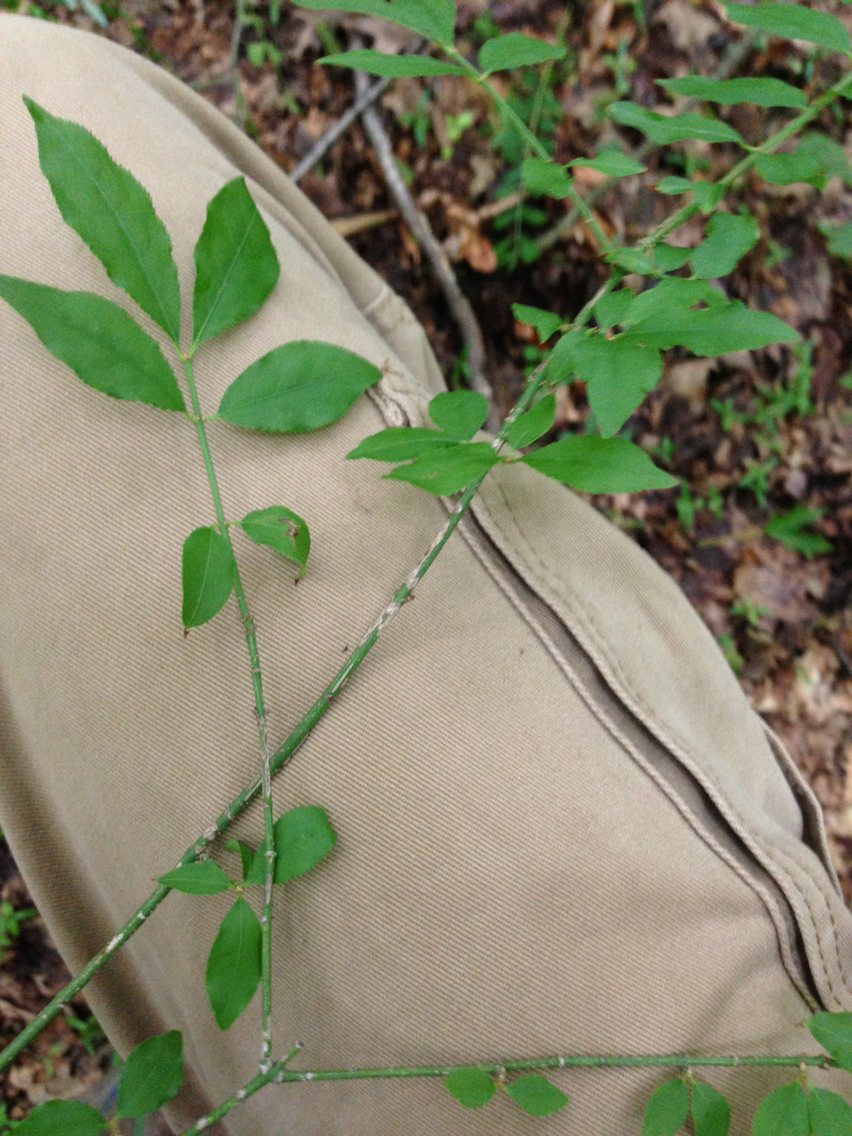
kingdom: Plantae
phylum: Tracheophyta
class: Magnoliopsida
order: Celastrales
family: Celastraceae
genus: Euonymus
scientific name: Euonymus alatus
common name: Winged euonymus
